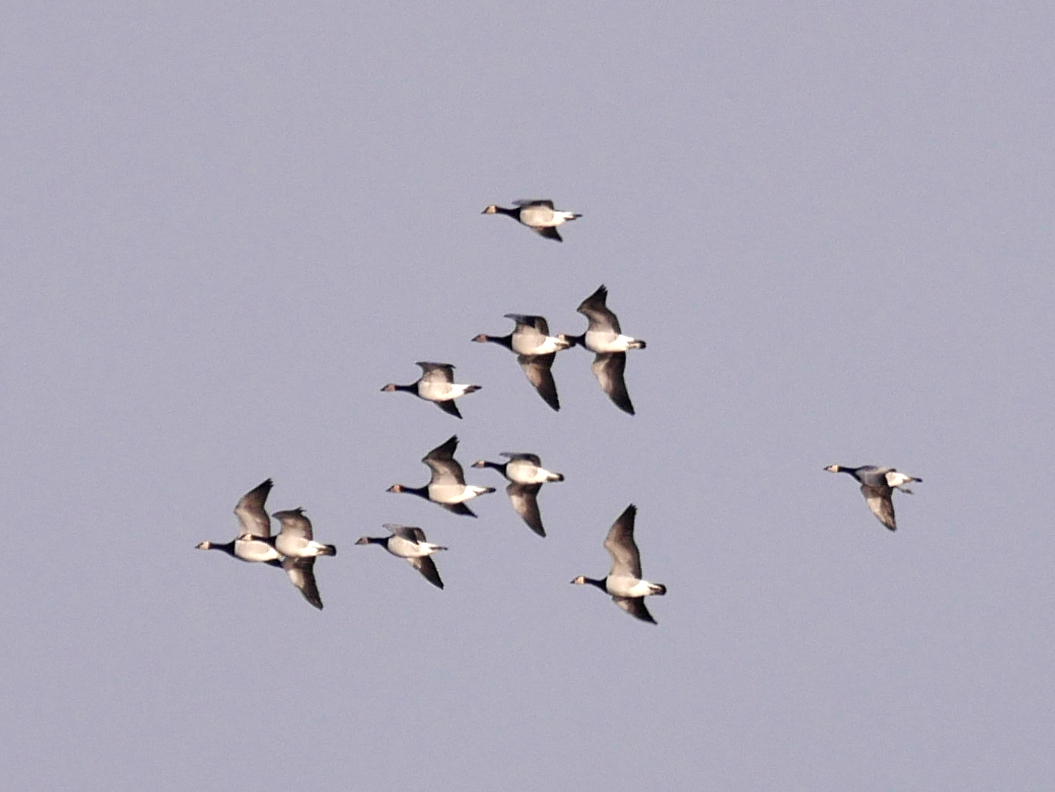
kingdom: Animalia
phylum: Chordata
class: Aves
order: Anseriformes
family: Anatidae
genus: Branta
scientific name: Branta leucopsis
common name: Barnacle goose
